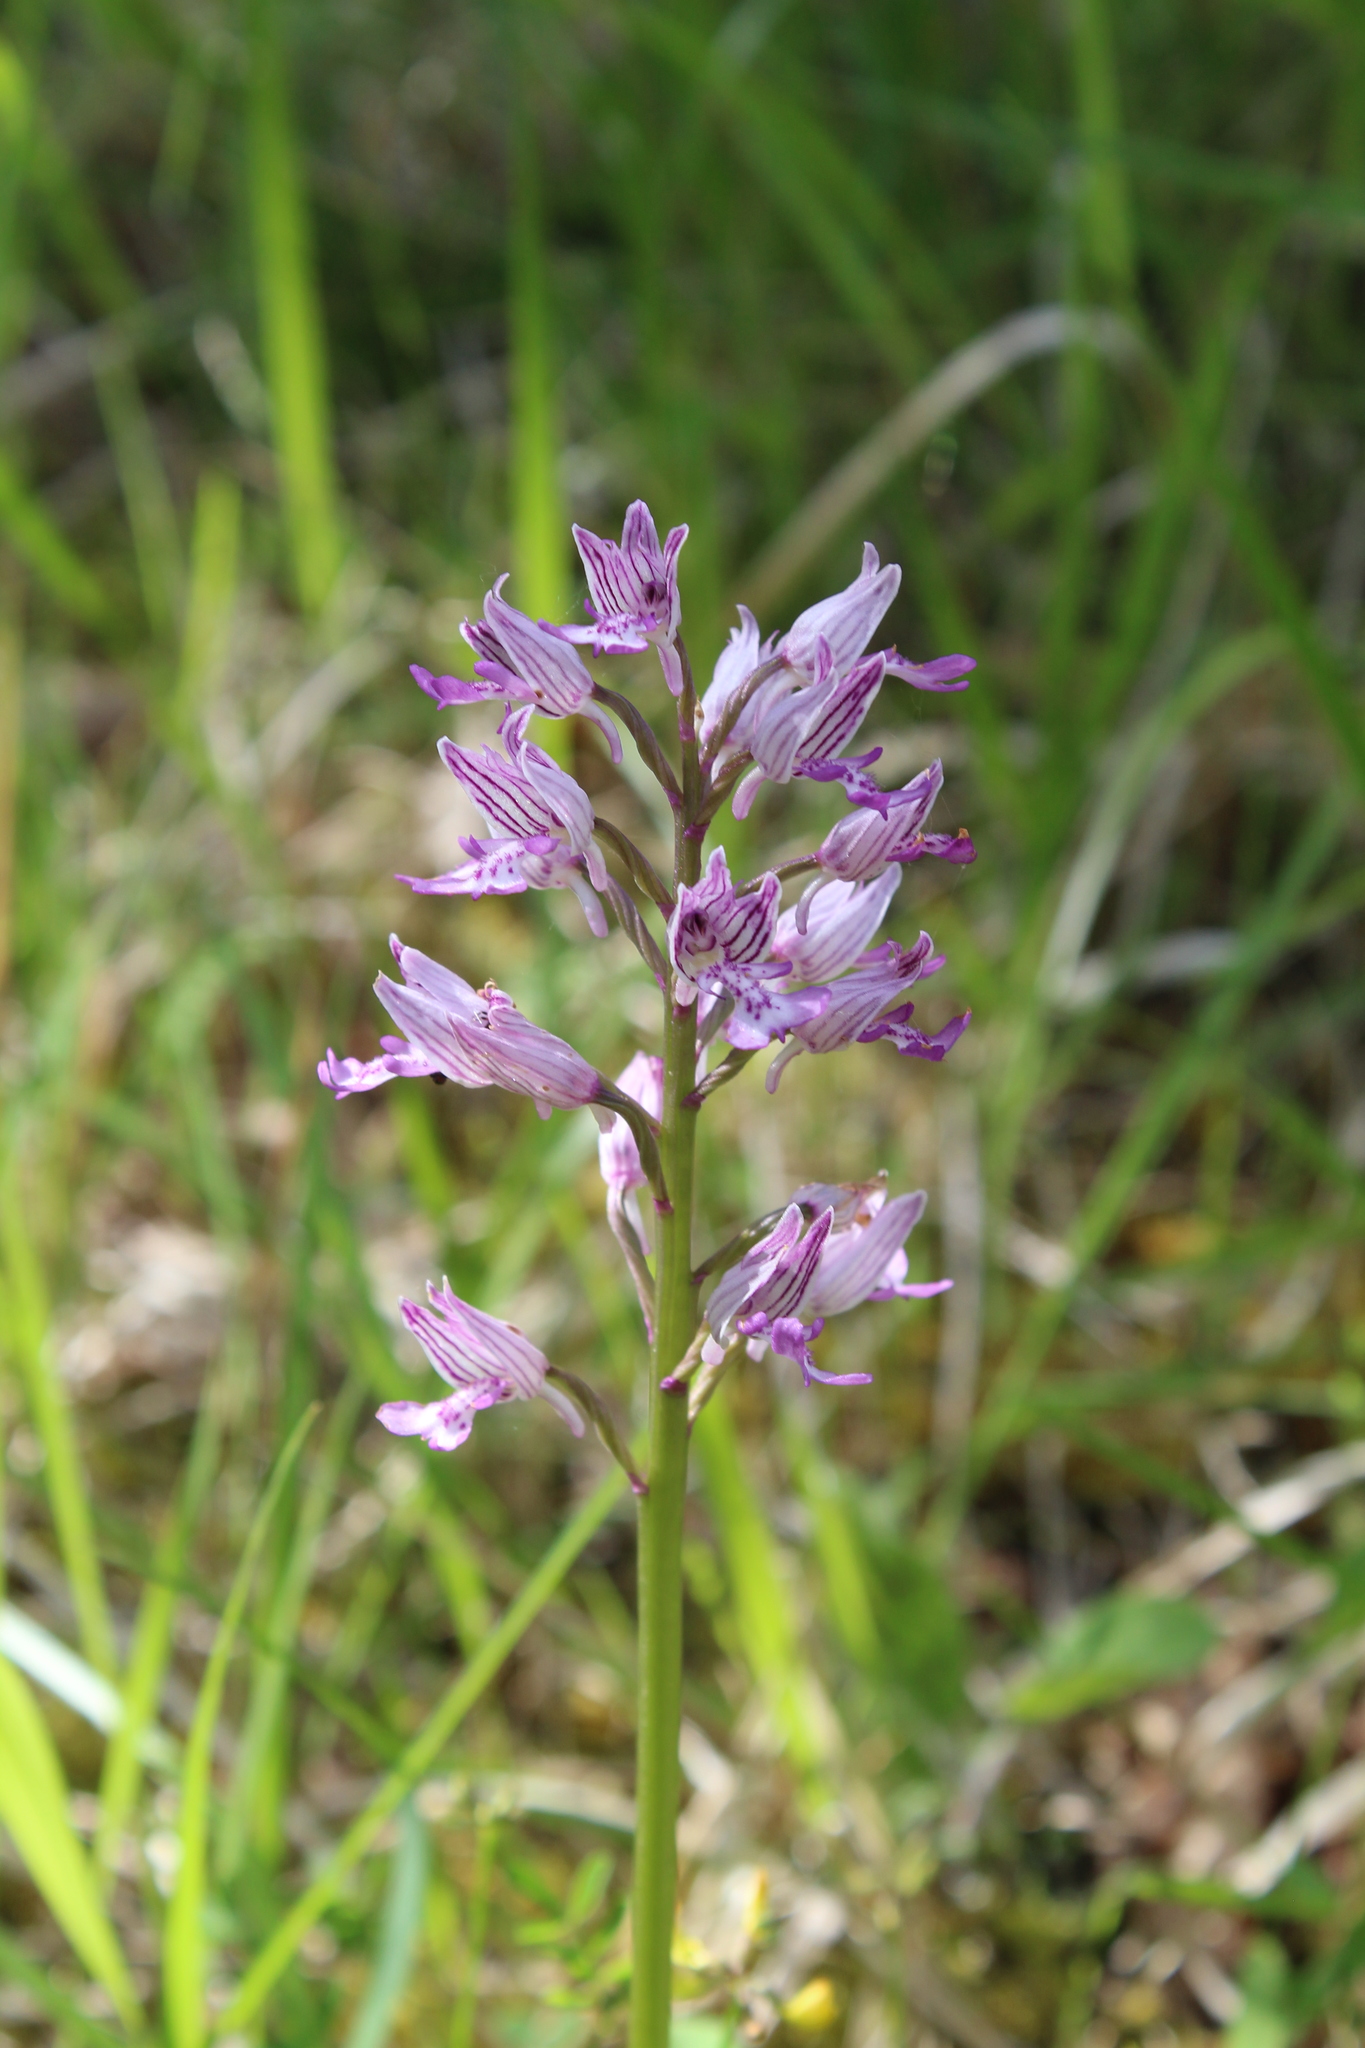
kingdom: Plantae
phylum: Tracheophyta
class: Liliopsida
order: Asparagales
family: Orchidaceae
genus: Orchis
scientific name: Orchis militaris
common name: Military orchid
